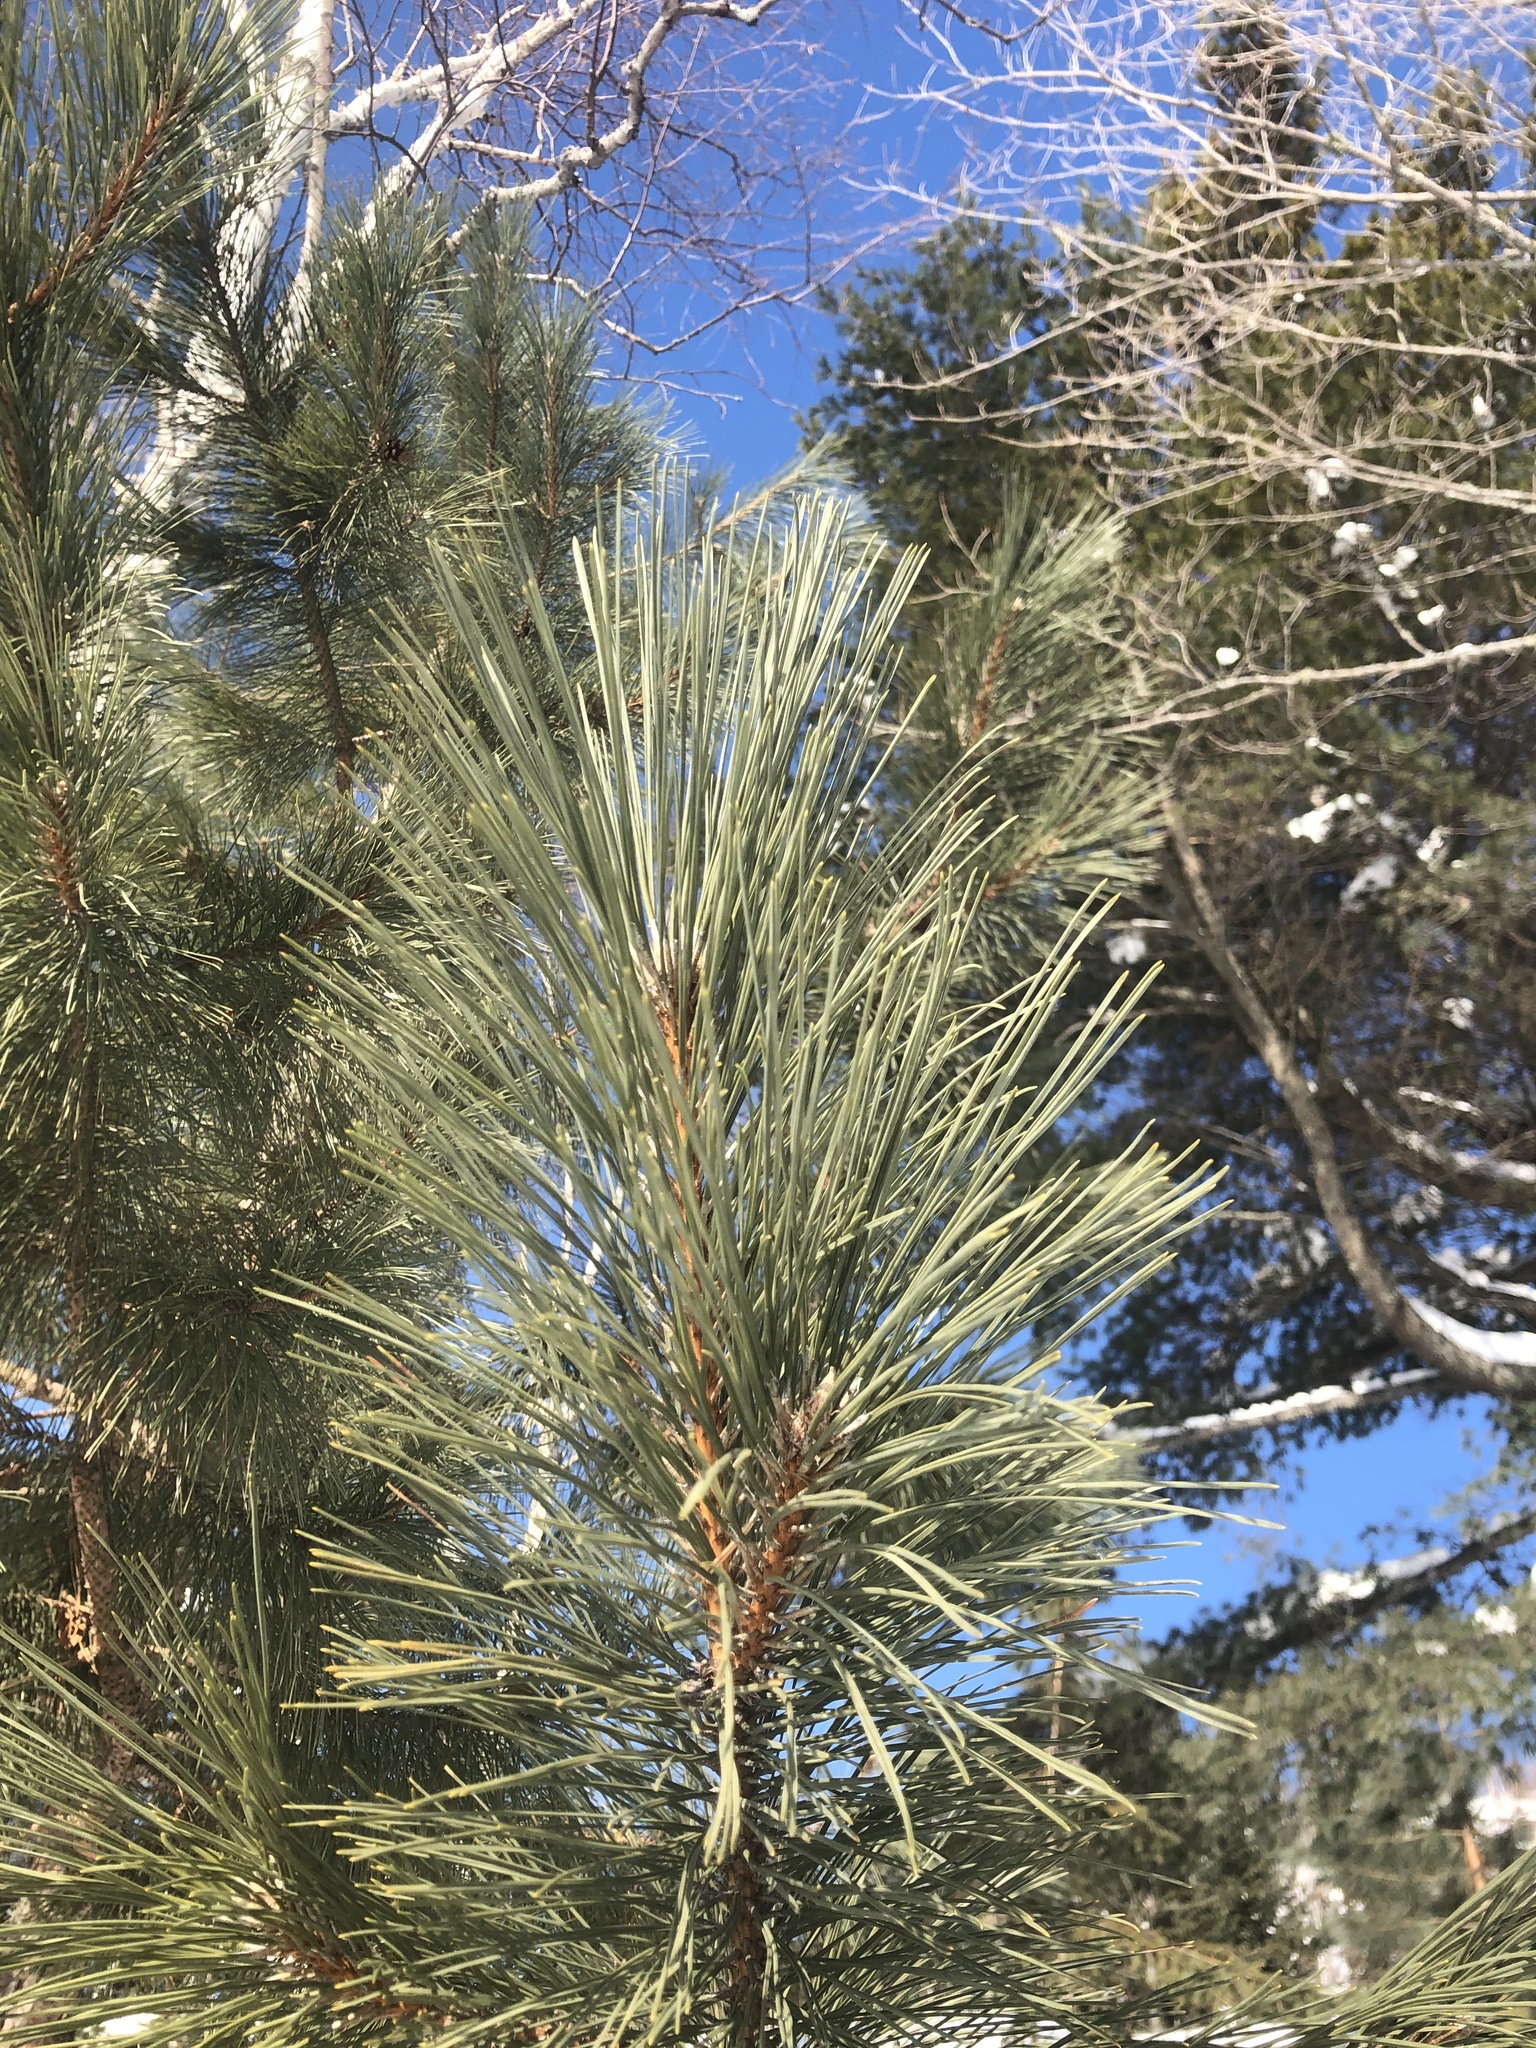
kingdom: Plantae
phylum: Tracheophyta
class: Pinopsida
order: Pinales
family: Pinaceae
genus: Pinus
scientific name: Pinus resinosa
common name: Norway pine
